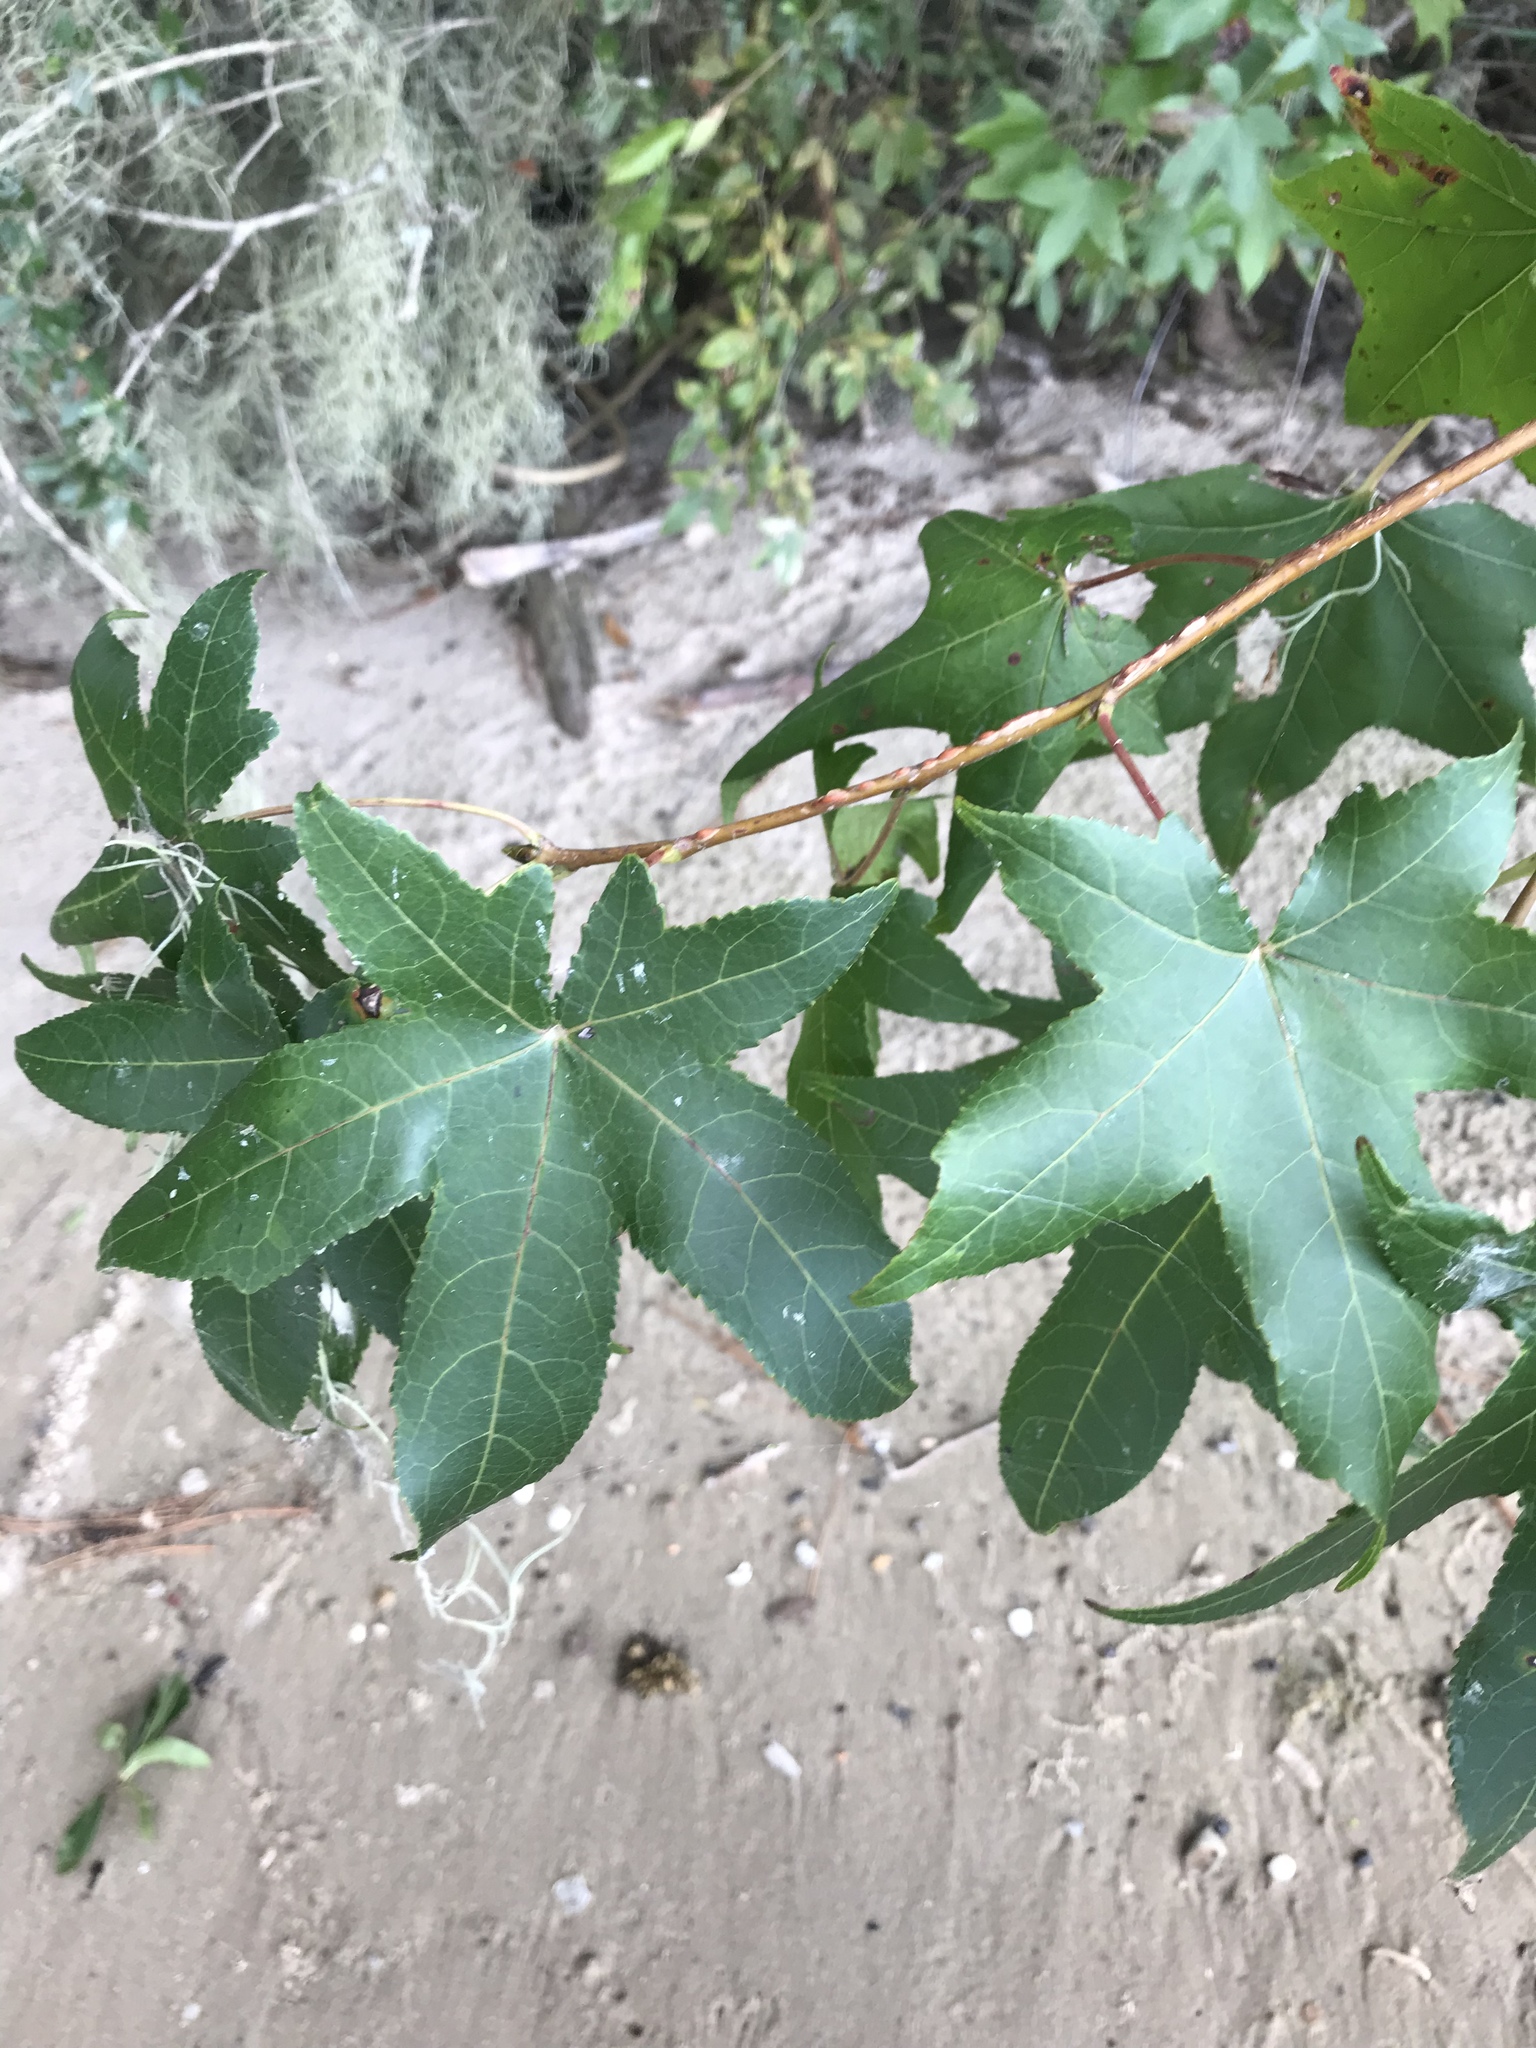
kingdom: Plantae
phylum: Tracheophyta
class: Magnoliopsida
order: Saxifragales
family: Altingiaceae
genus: Liquidambar
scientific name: Liquidambar styraciflua
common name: Sweet gum
